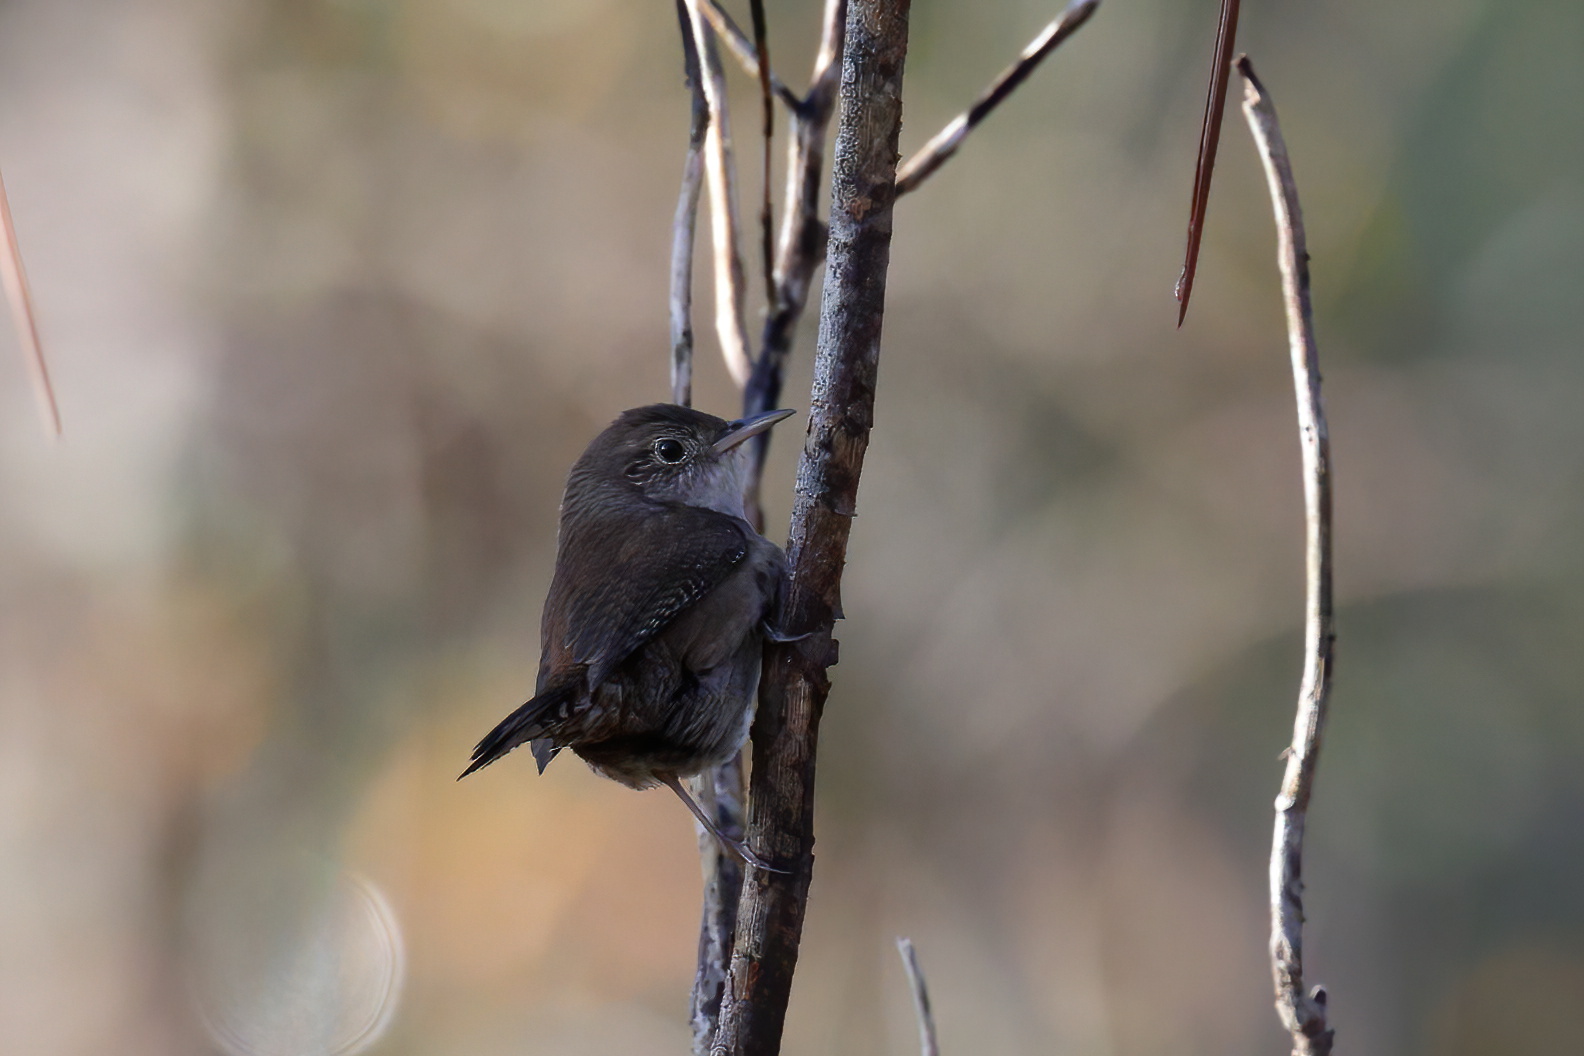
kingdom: Animalia
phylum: Chordata
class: Aves
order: Passeriformes
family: Troglodytidae
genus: Troglodytes
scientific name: Troglodytes aedon
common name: House wren
